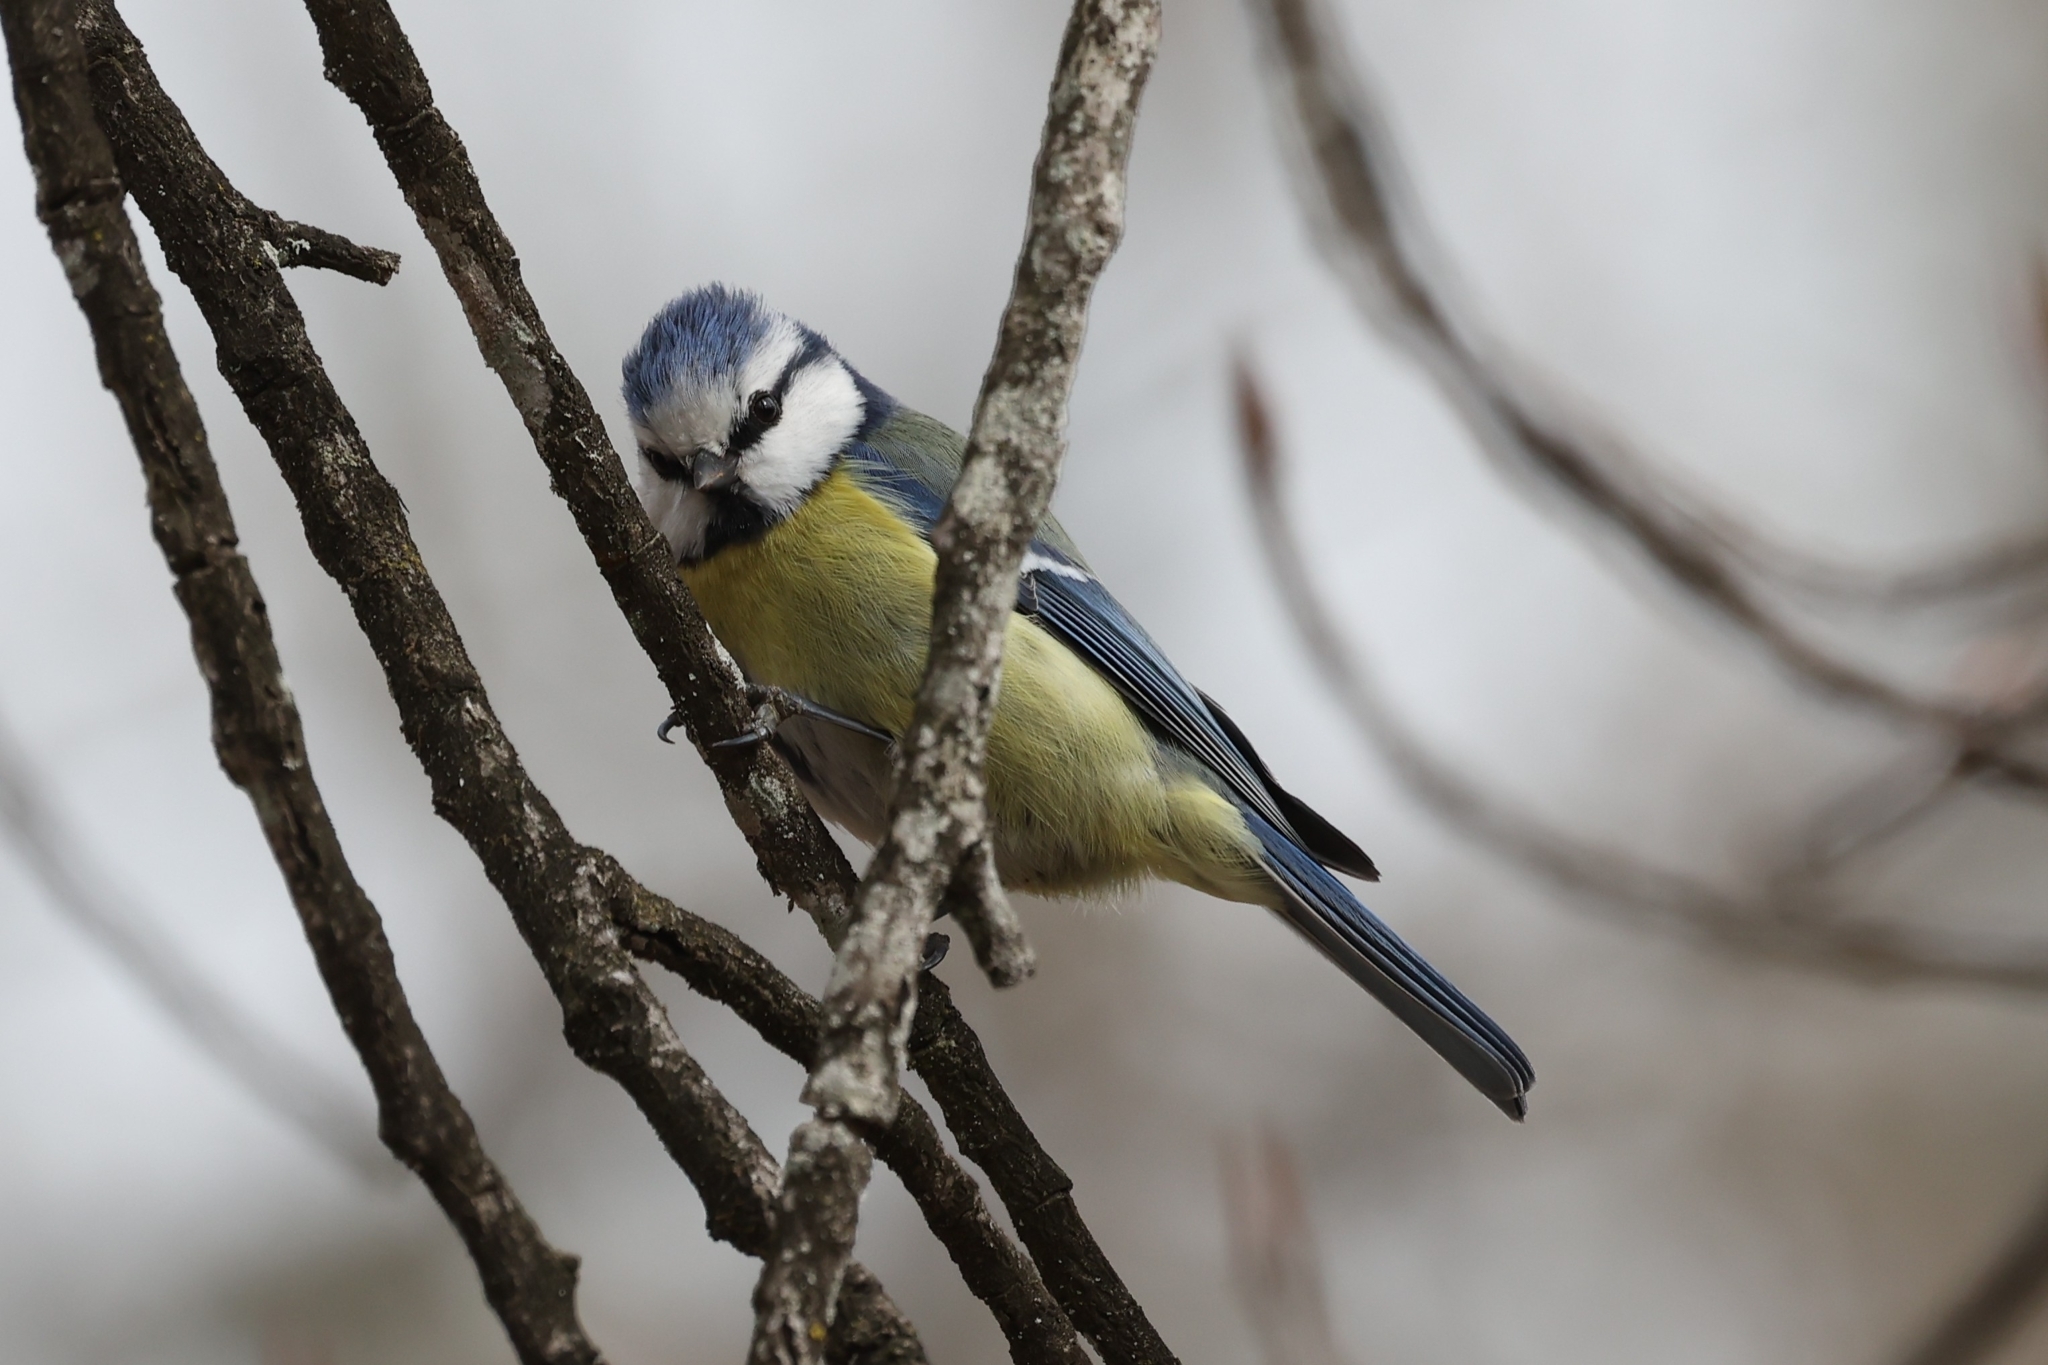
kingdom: Animalia
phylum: Chordata
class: Aves
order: Passeriformes
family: Paridae
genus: Cyanistes
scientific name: Cyanistes caeruleus
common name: Eurasian blue tit
